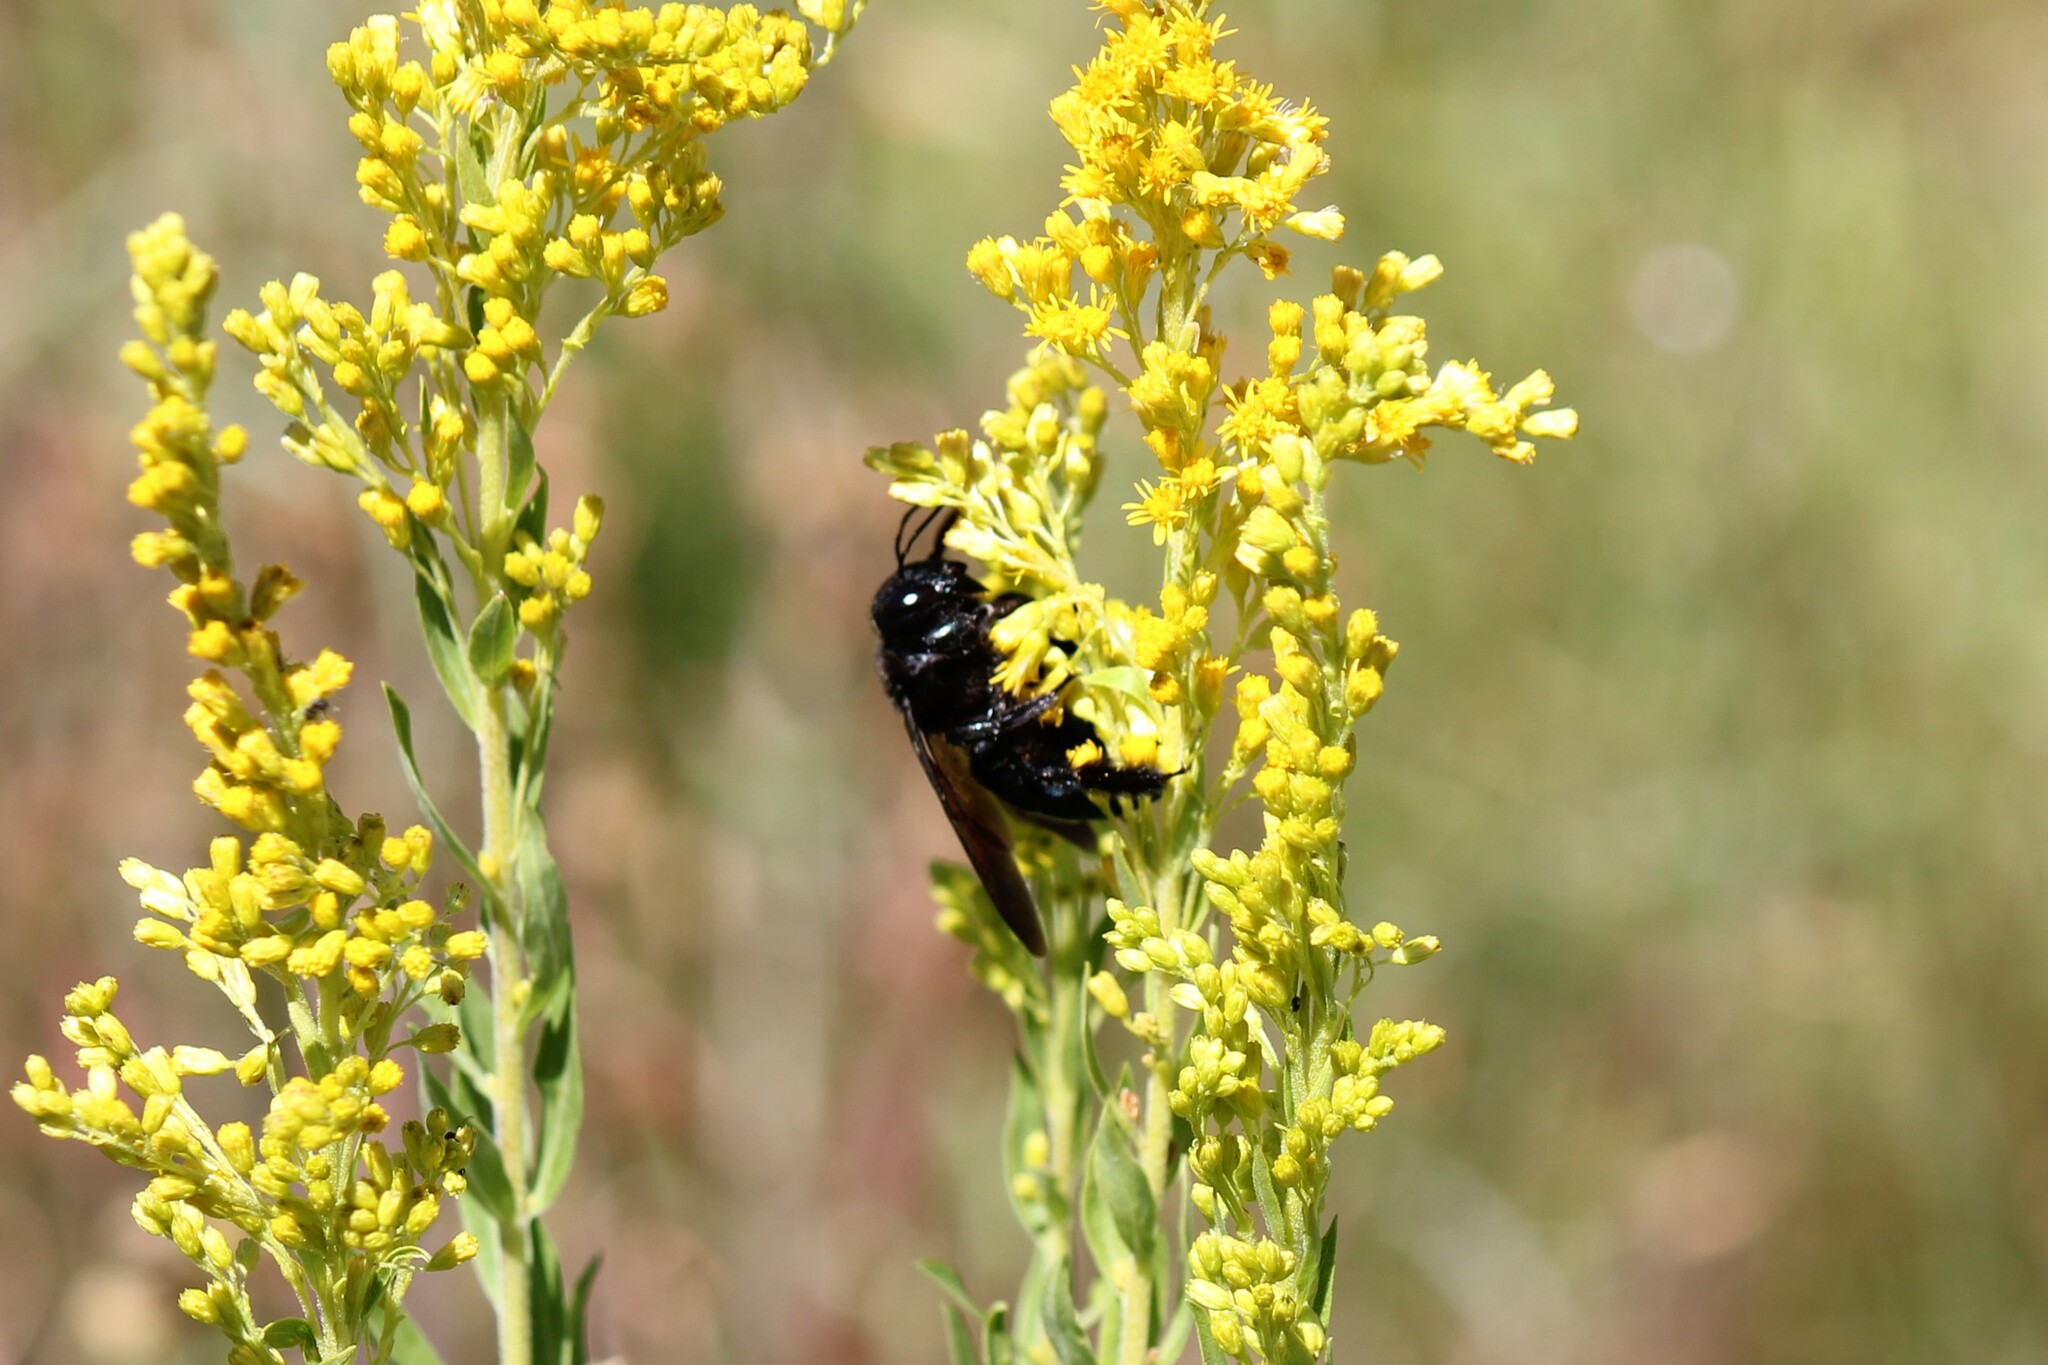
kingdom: Animalia
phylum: Arthropoda
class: Insecta
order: Hymenoptera
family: Apidae
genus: Xylocopa
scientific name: Xylocopa californica
